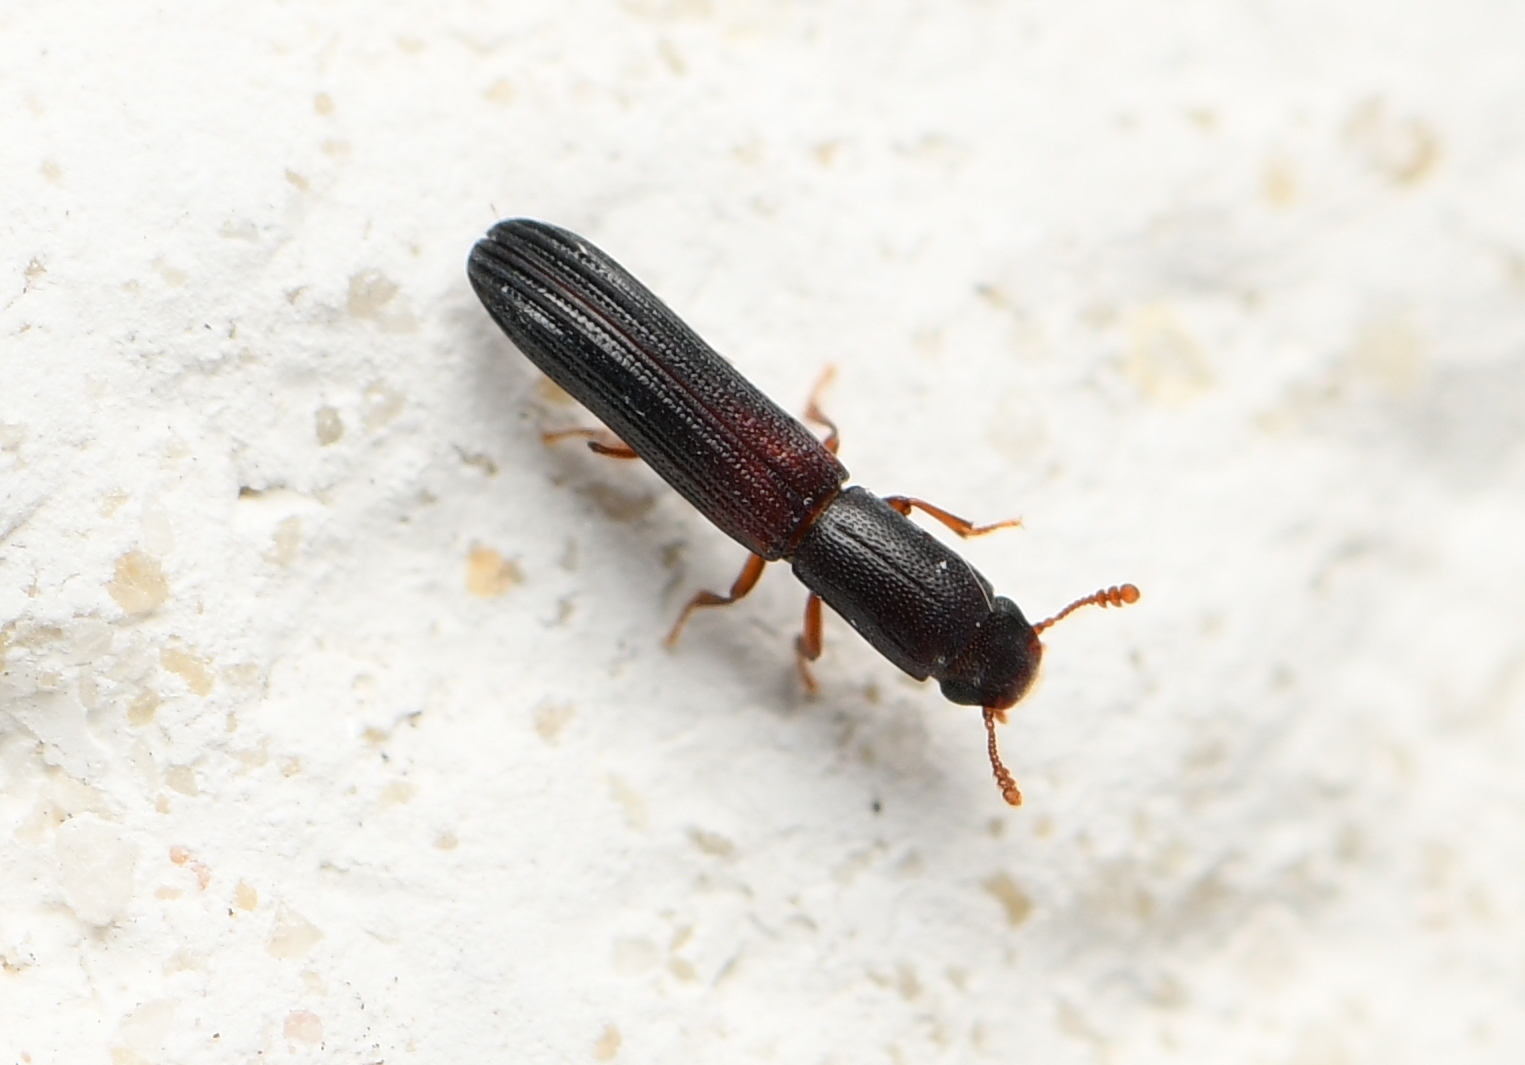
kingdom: Animalia
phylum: Arthropoda
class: Insecta
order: Coleoptera
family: Zopheridae
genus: Colydium
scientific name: Colydium lineola
